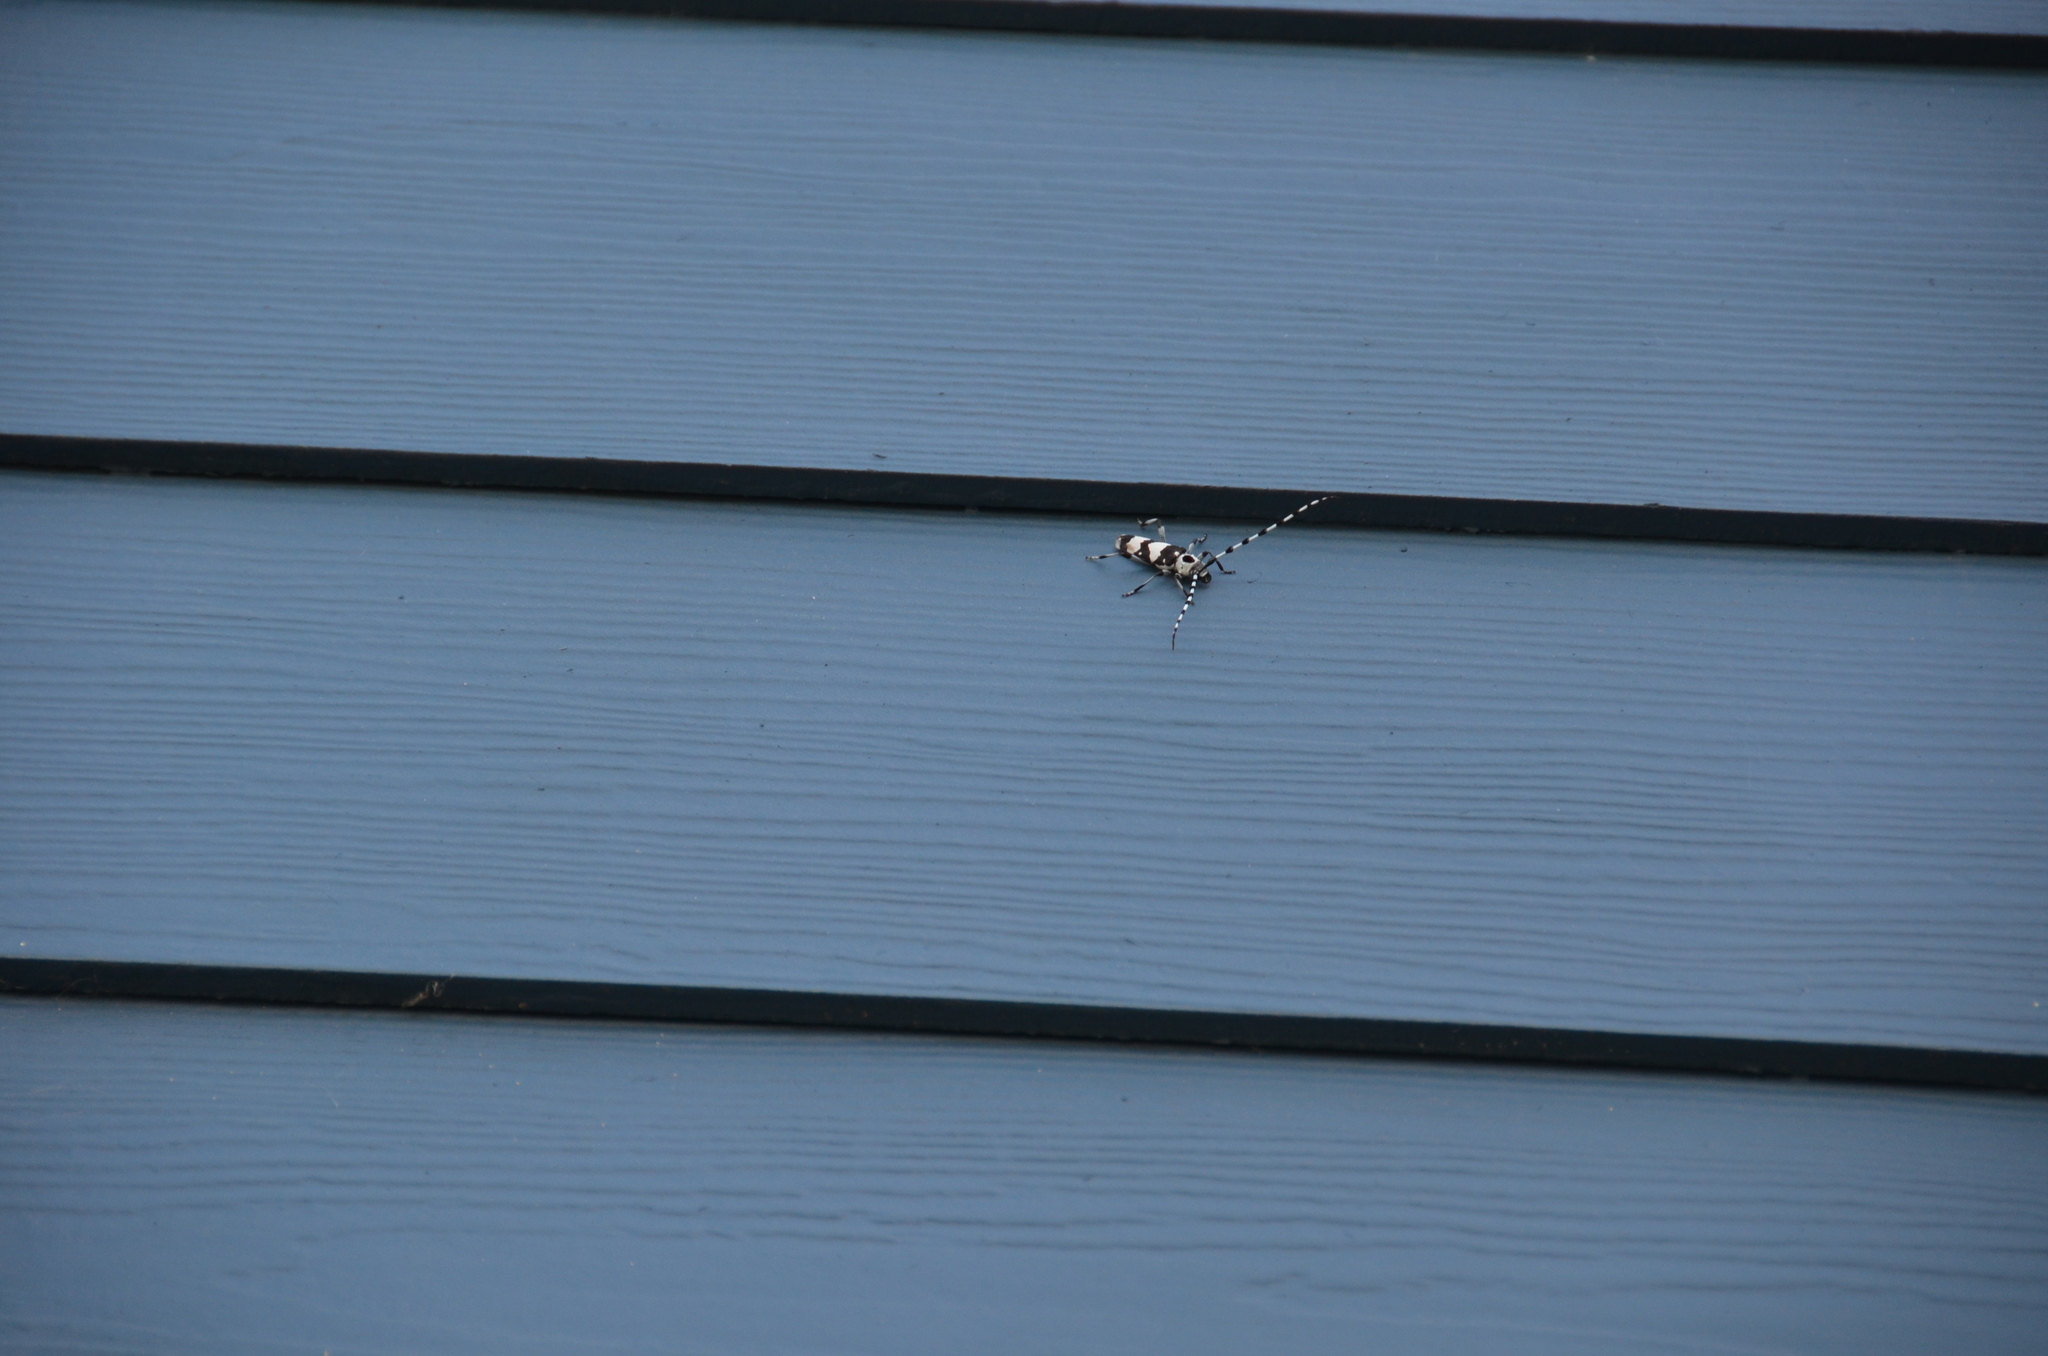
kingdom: Animalia
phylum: Arthropoda
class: Insecta
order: Coleoptera
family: Cerambycidae
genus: Rosalia
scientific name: Rosalia funebris
